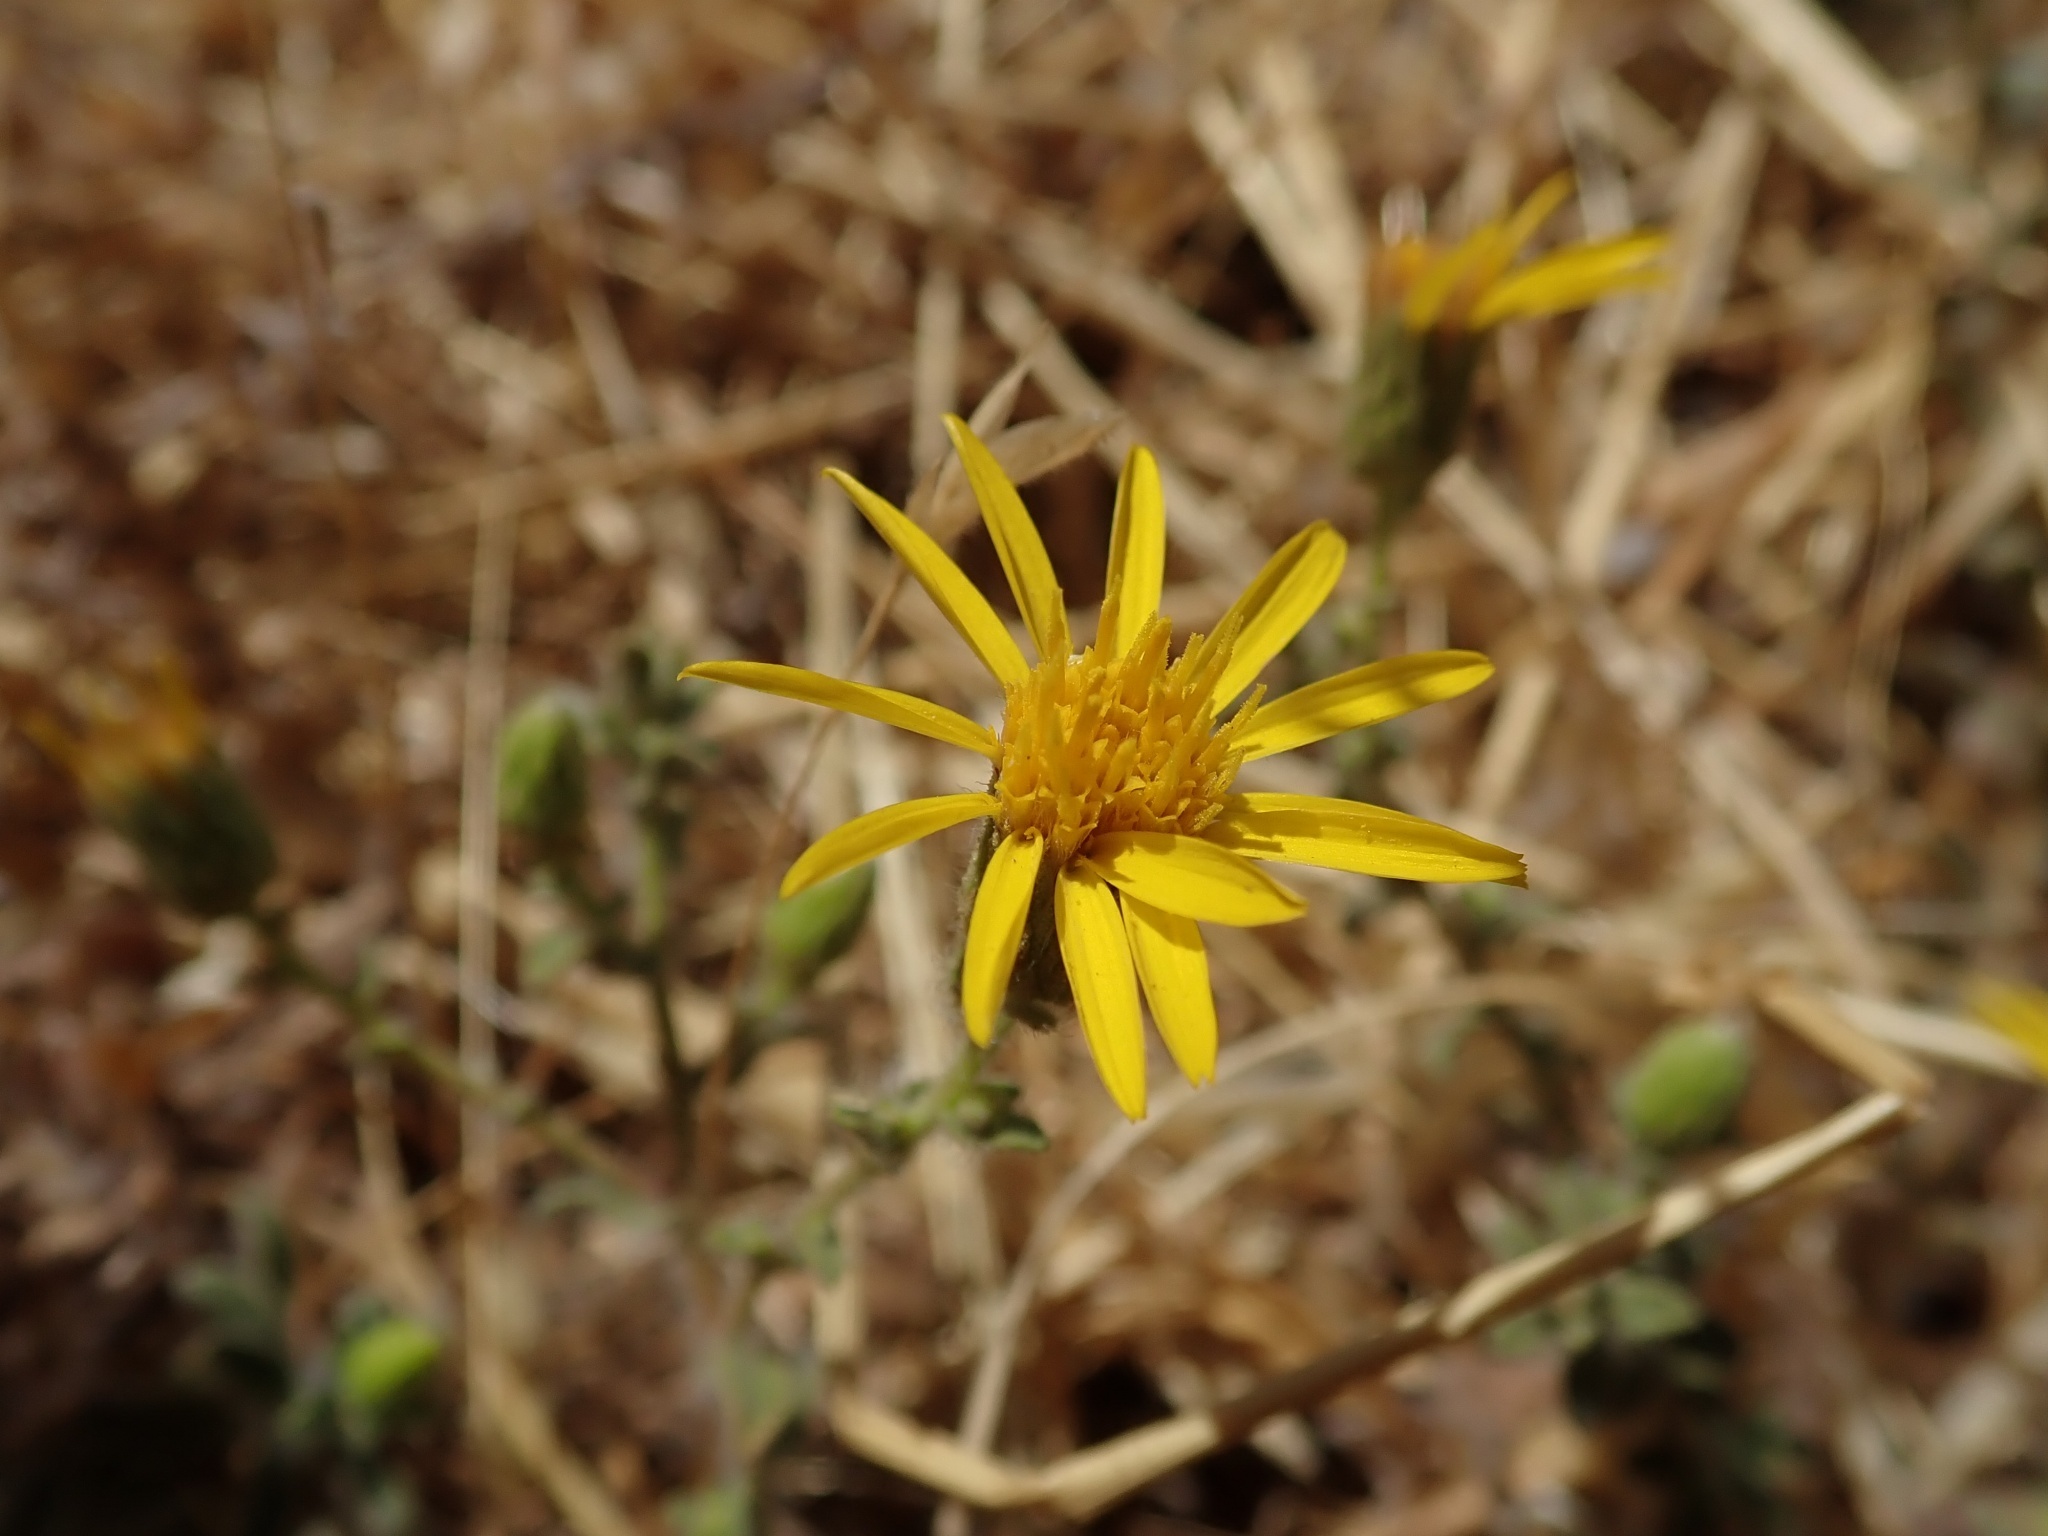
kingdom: Plantae
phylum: Tracheophyta
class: Magnoliopsida
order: Asterales
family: Asteraceae
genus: Heterotheca
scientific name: Heterotheca sessiliflora
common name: Sessile-flower golden-aster
